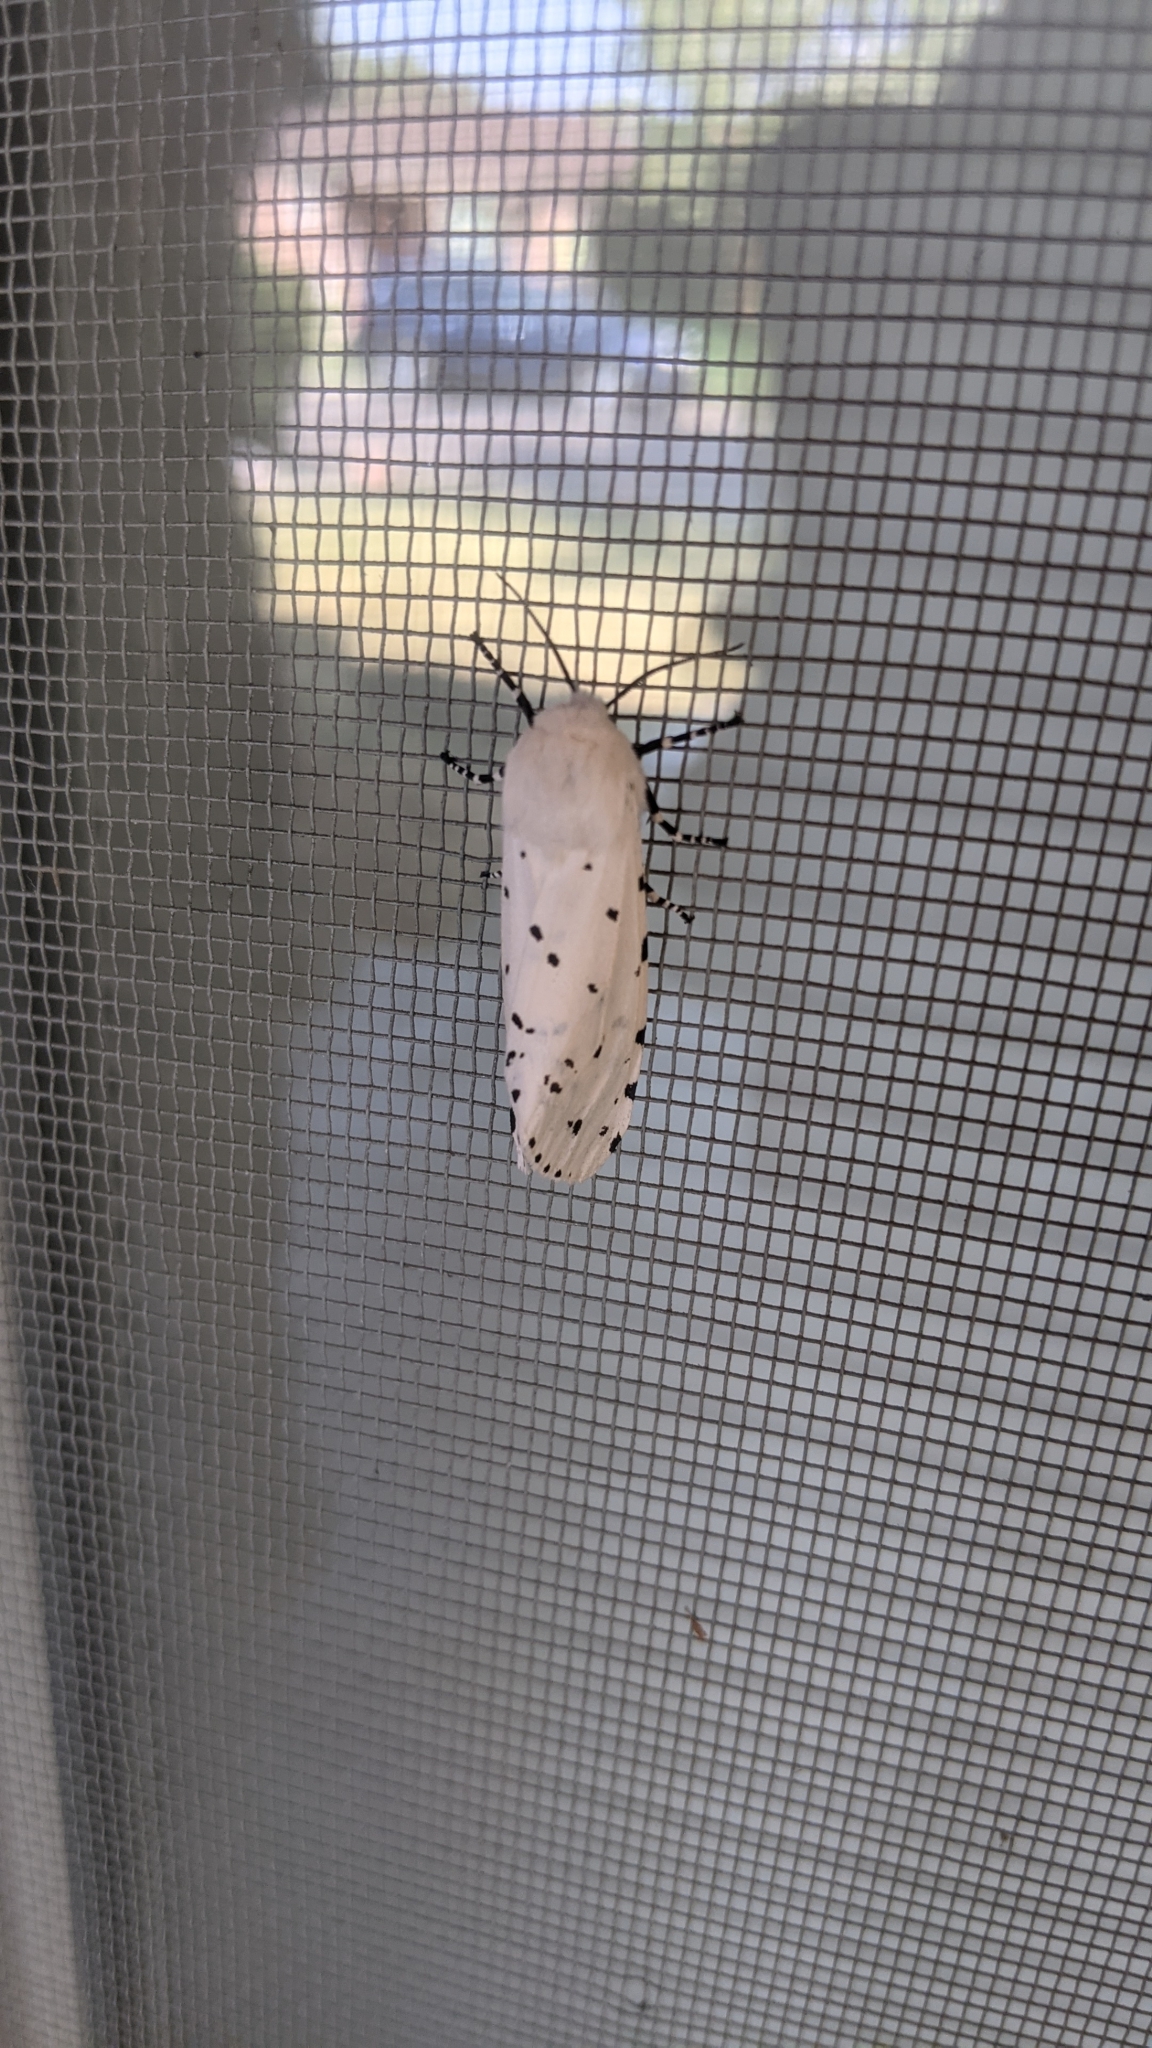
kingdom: Animalia
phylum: Arthropoda
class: Insecta
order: Lepidoptera
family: Erebidae
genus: Estigmene
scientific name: Estigmene
